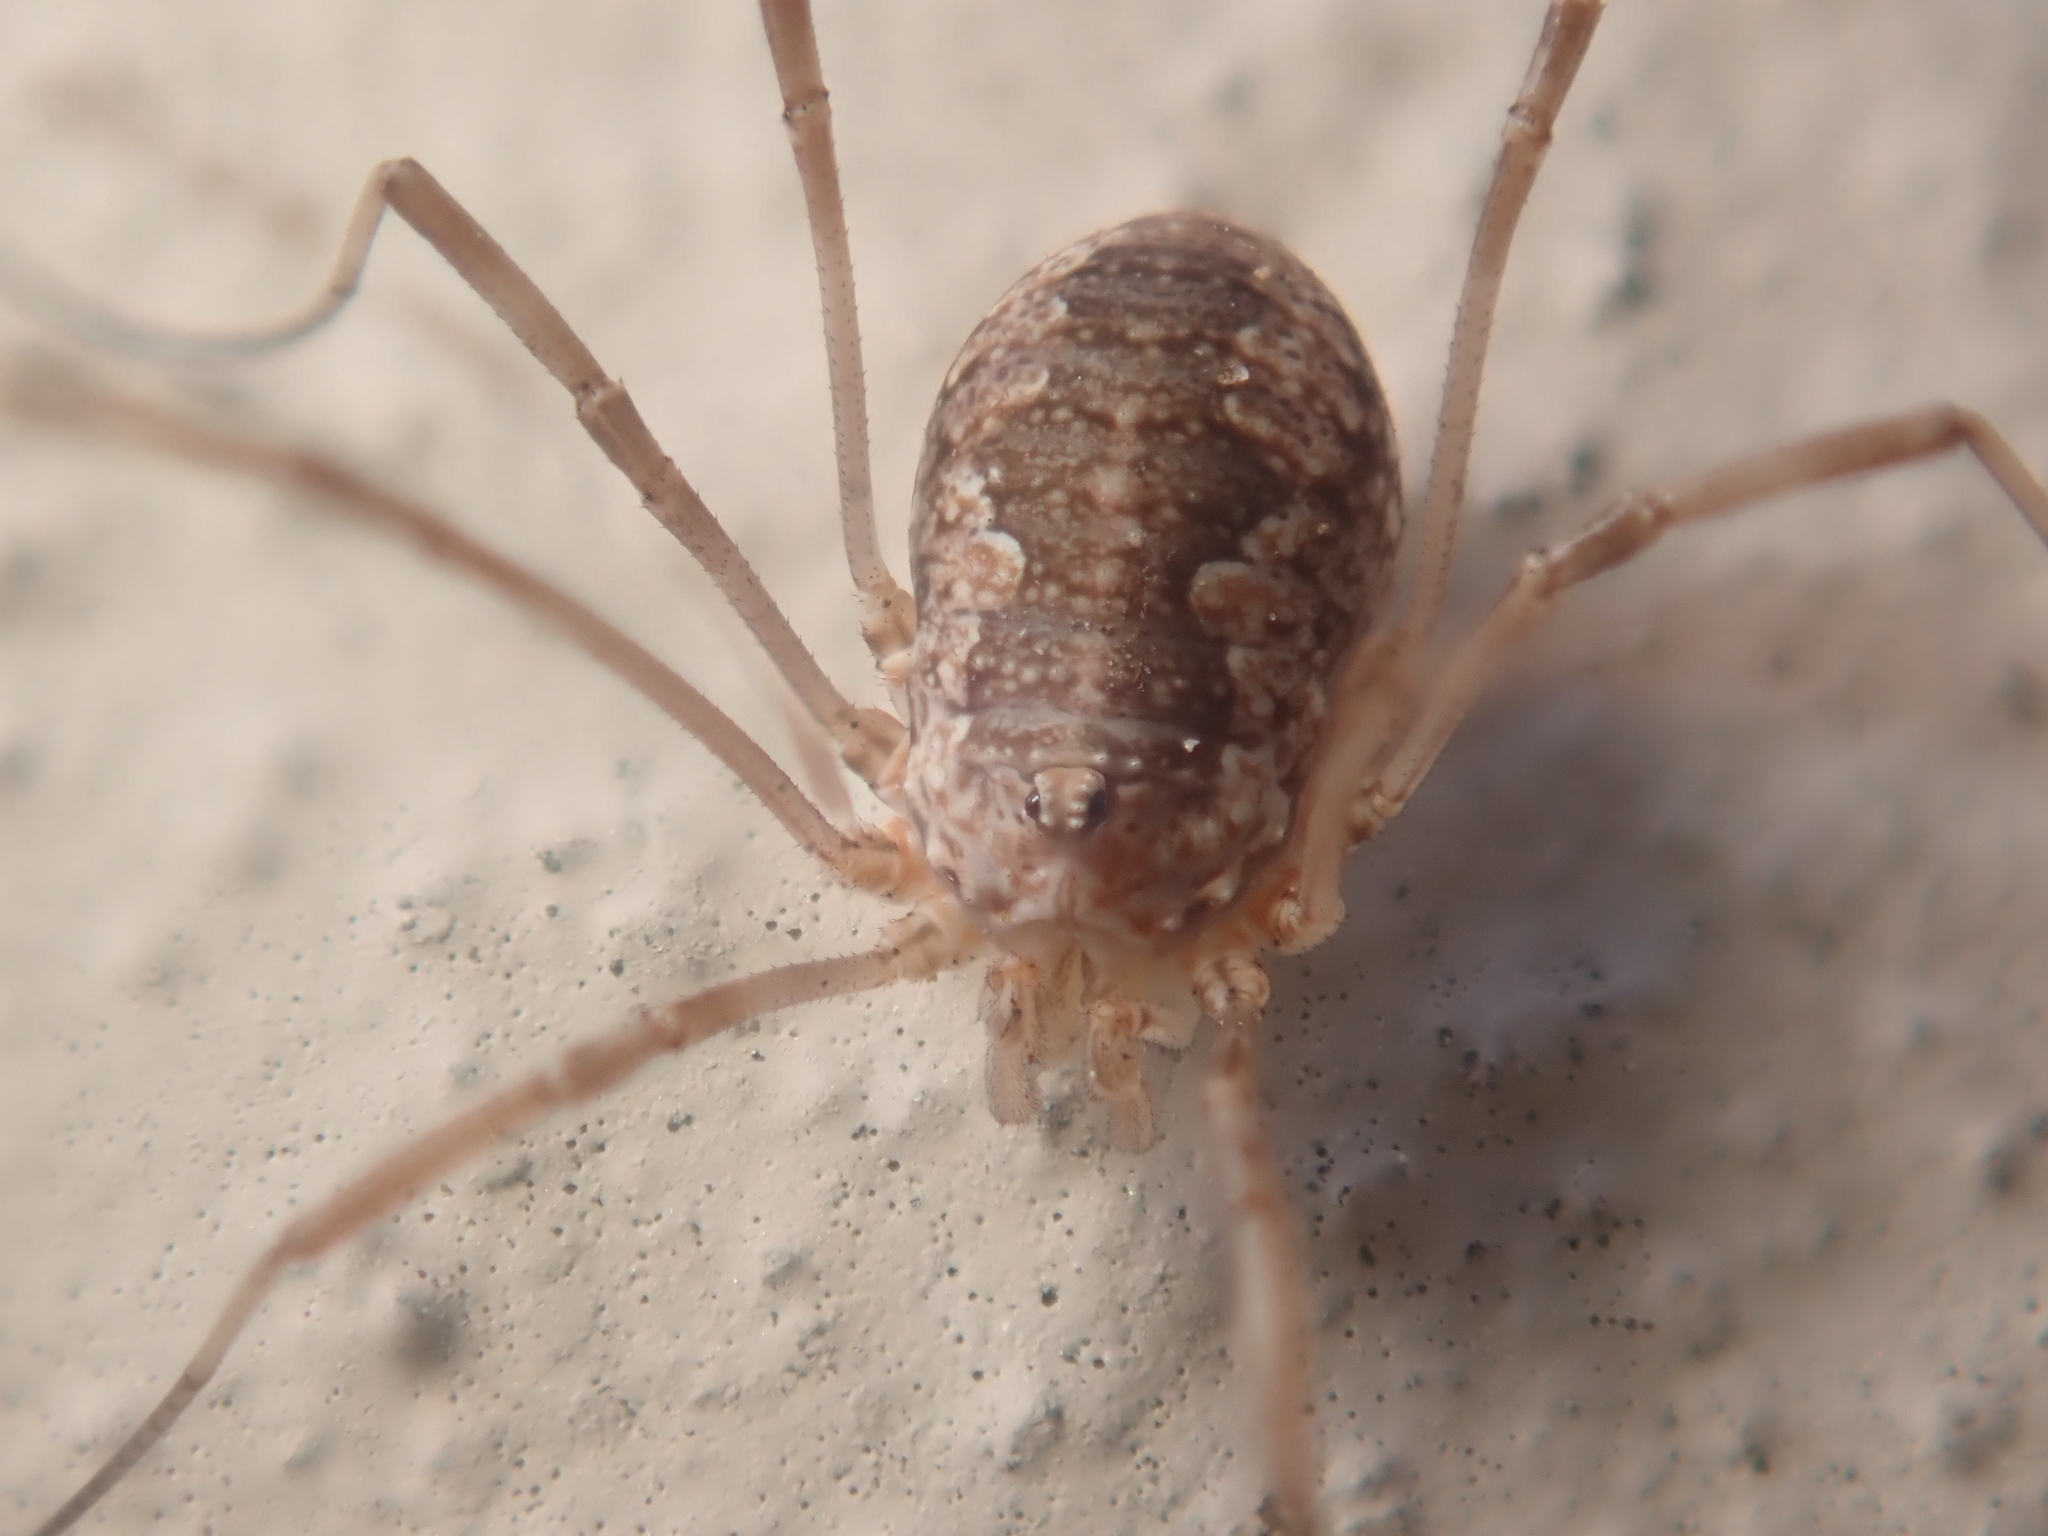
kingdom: Animalia
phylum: Arthropoda
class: Arachnida
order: Opiliones
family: Phalangiidae
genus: Phalangium
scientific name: Phalangium opilio
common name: Daddy longleg
